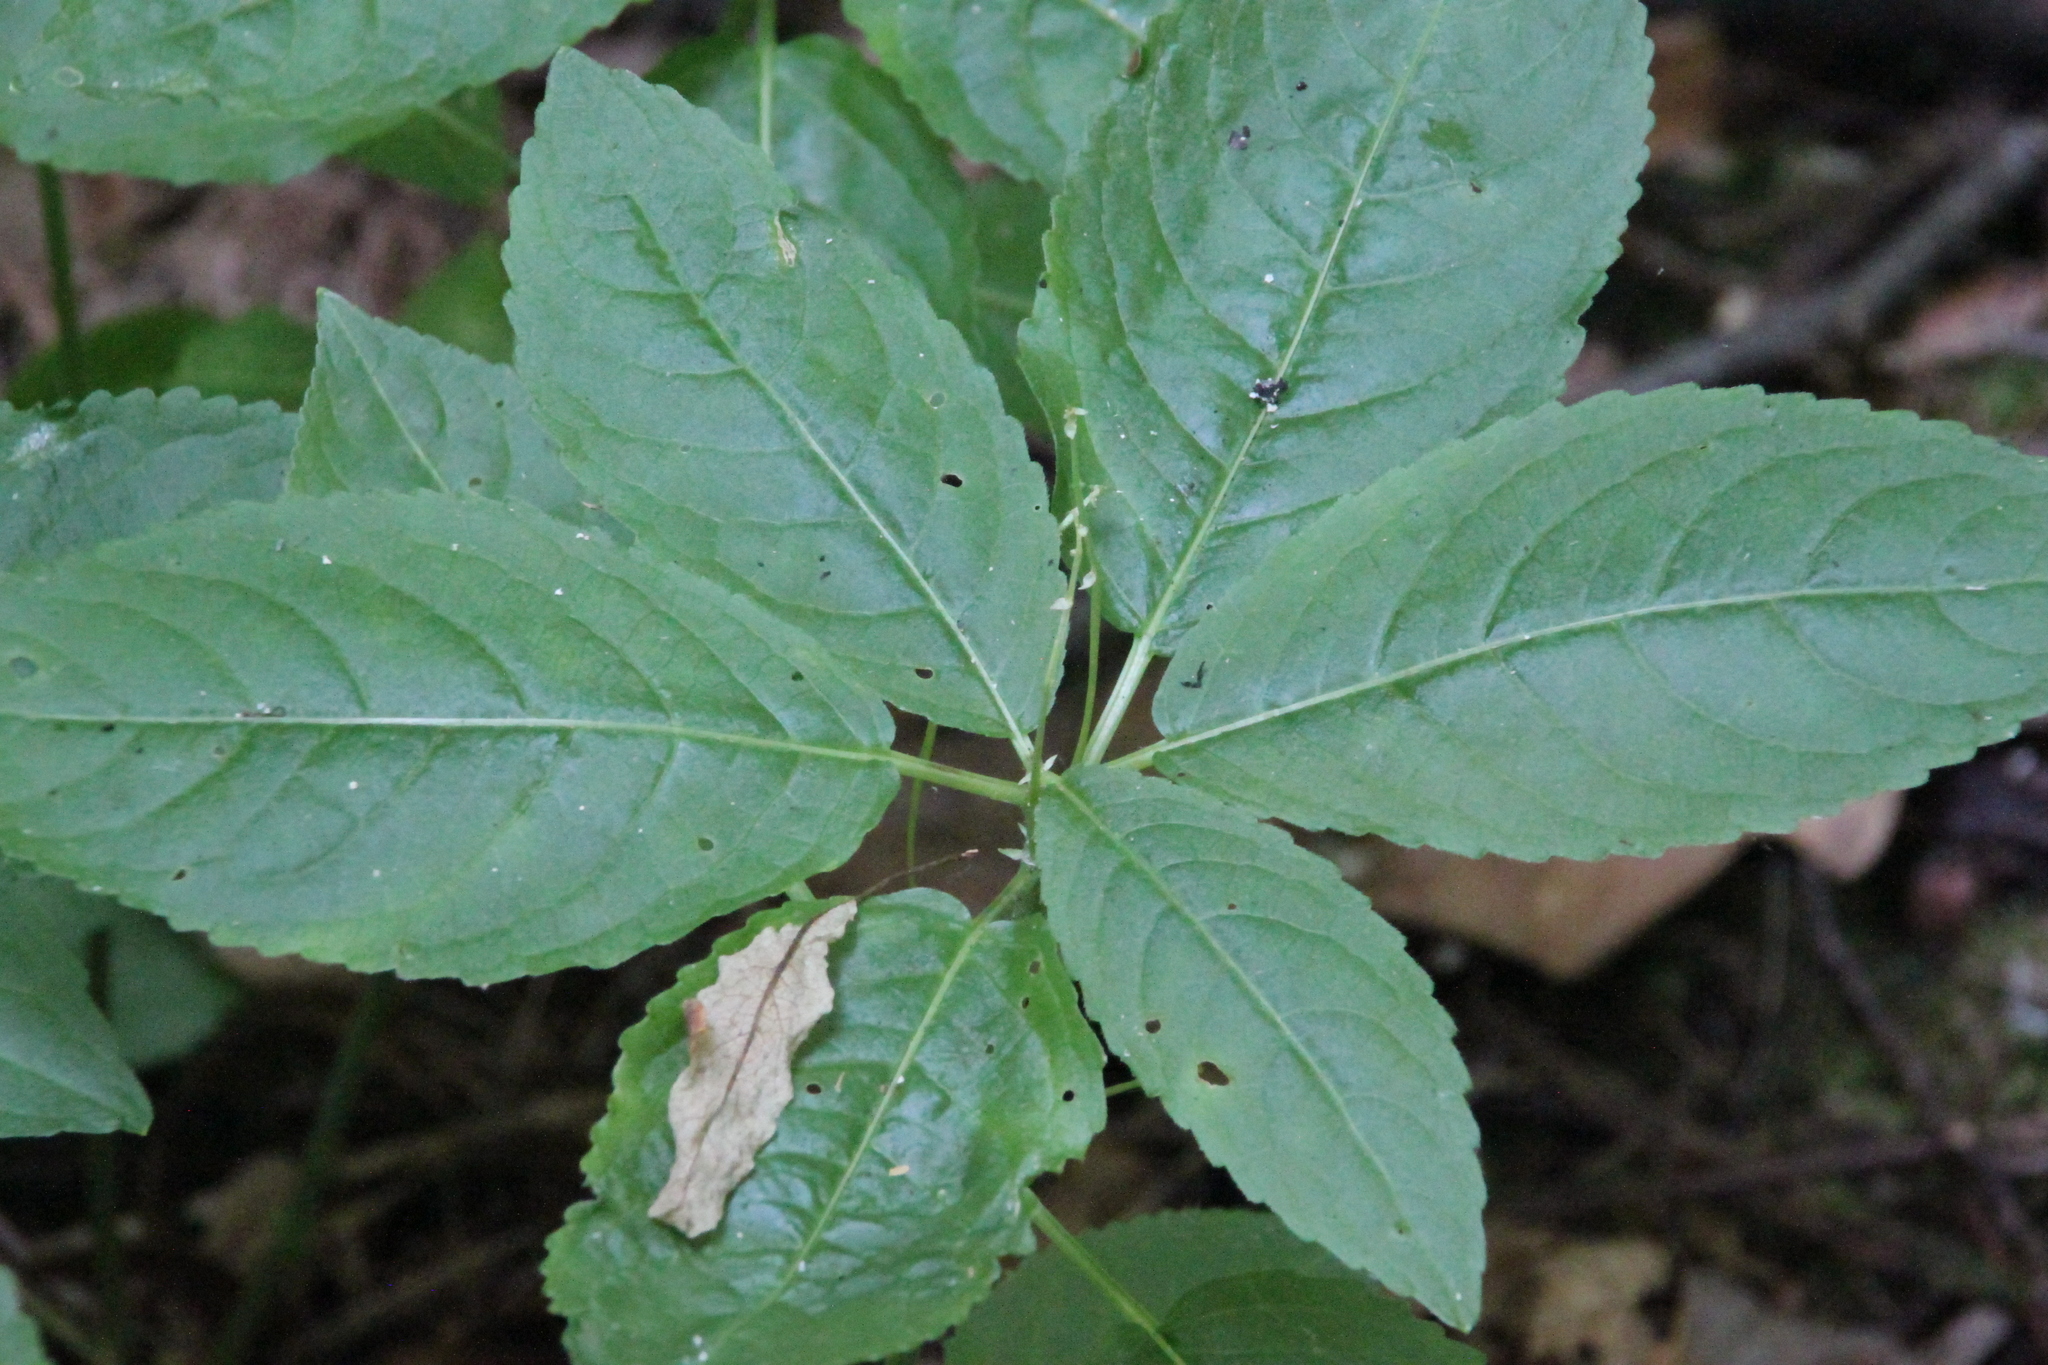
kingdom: Plantae
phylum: Tracheophyta
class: Magnoliopsida
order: Malpighiales
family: Euphorbiaceae
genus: Mercurialis
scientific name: Mercurialis perennis
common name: Dog mercury
